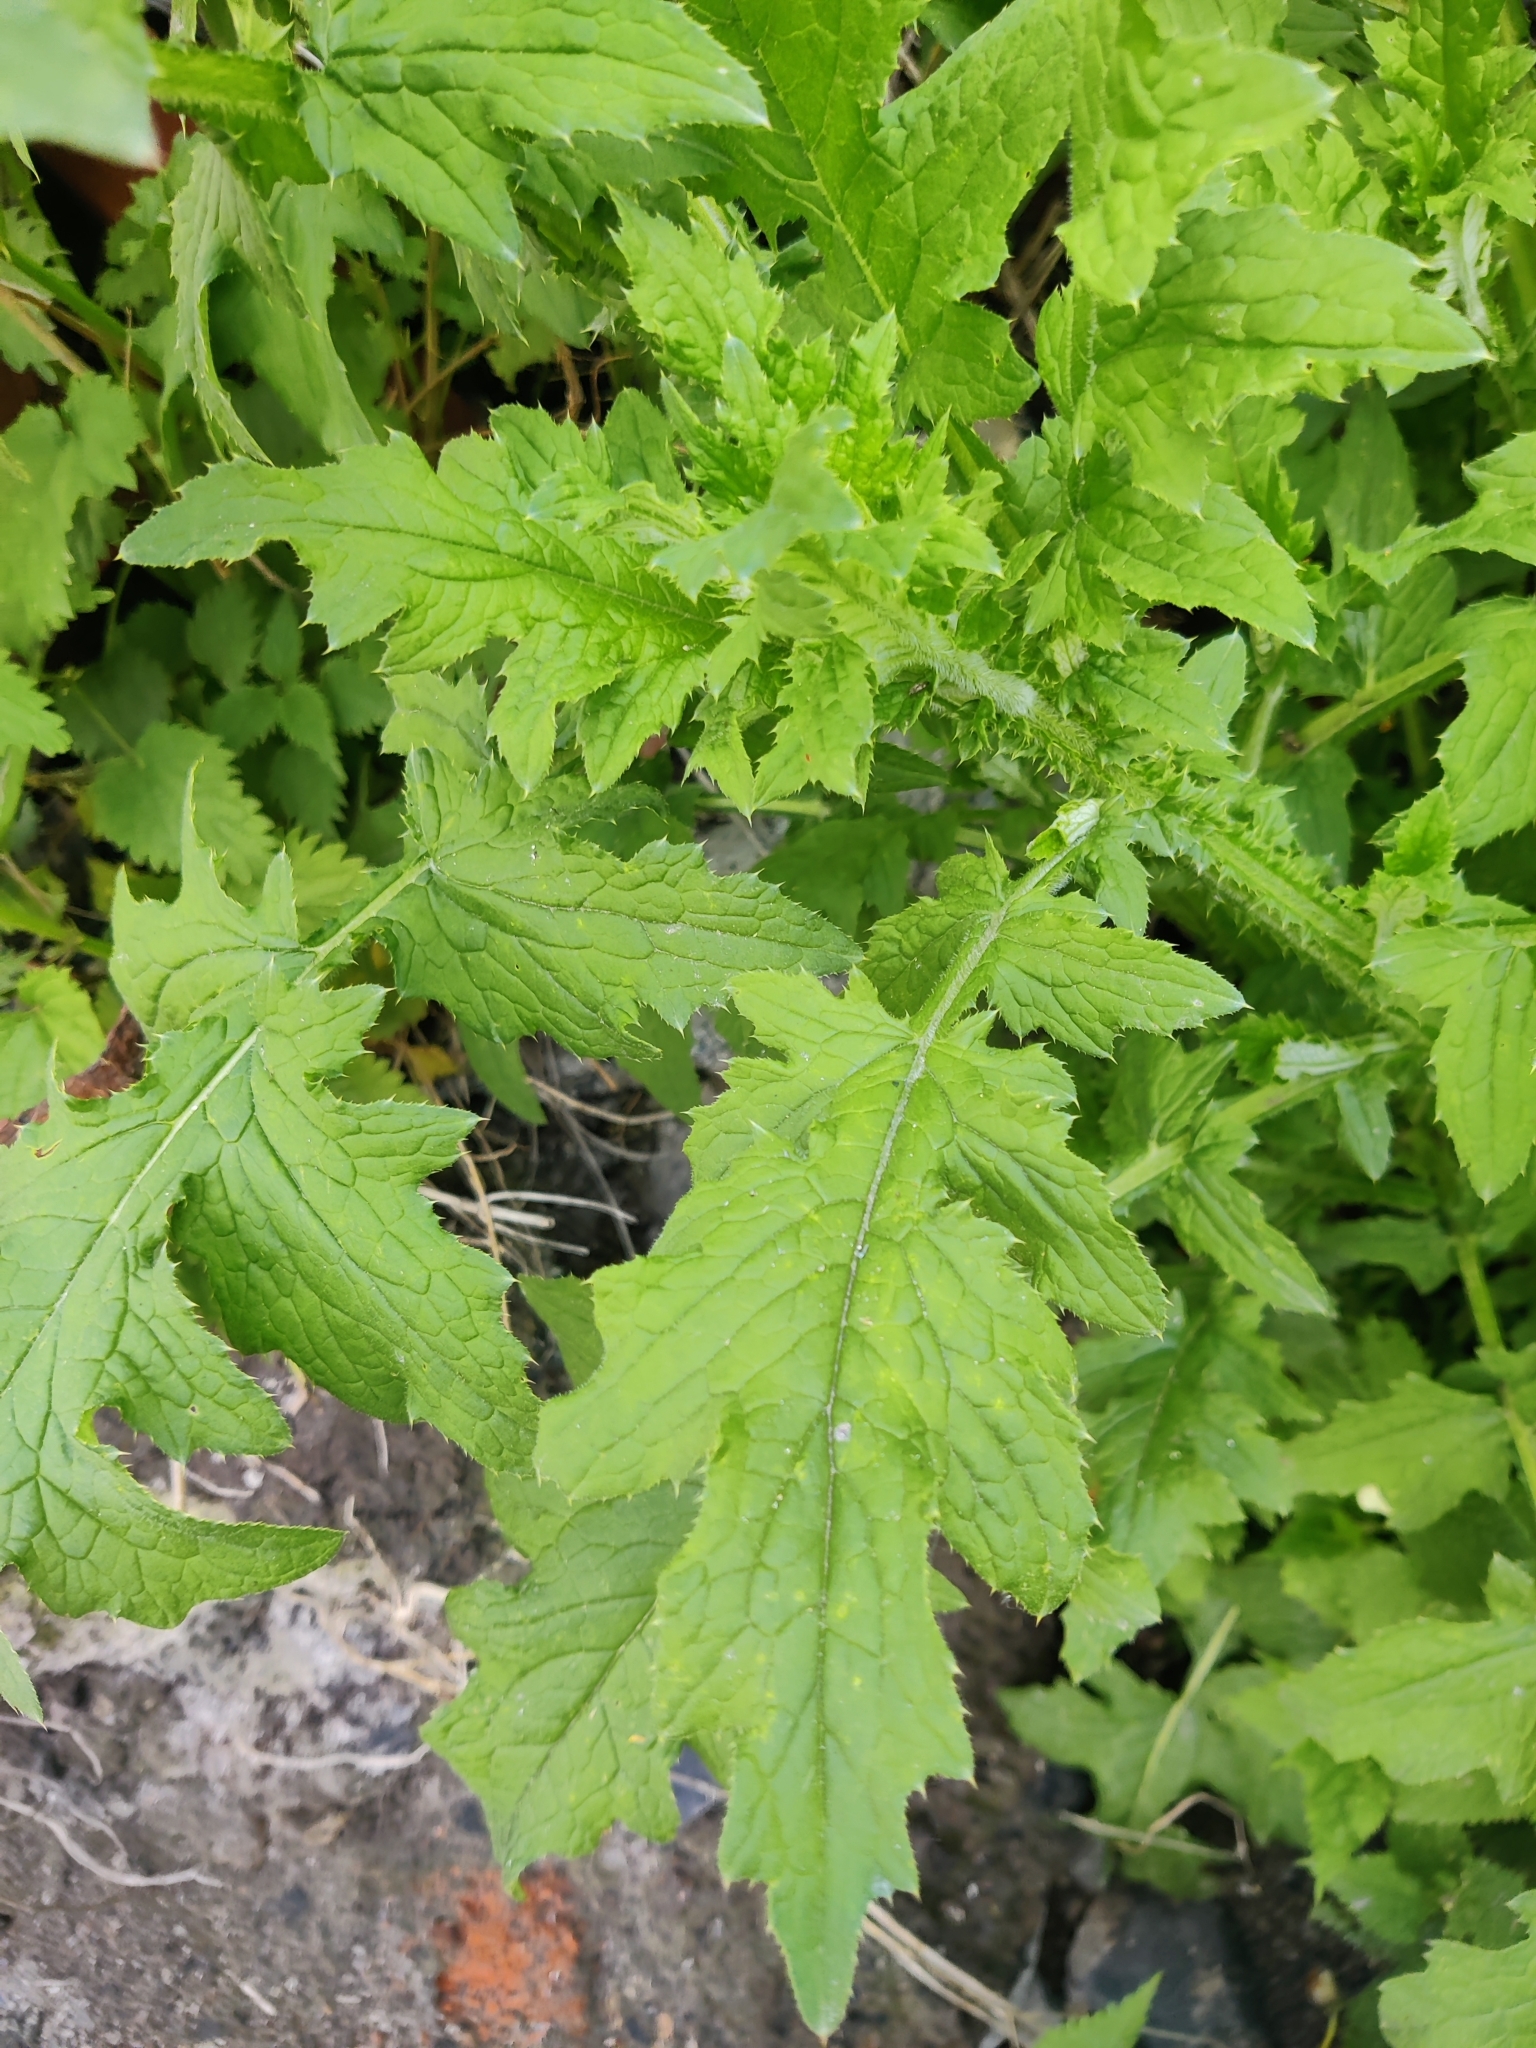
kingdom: Plantae
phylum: Tracheophyta
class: Magnoliopsida
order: Asterales
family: Asteraceae
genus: Carduus
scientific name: Carduus crispus
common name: Welted thistle
